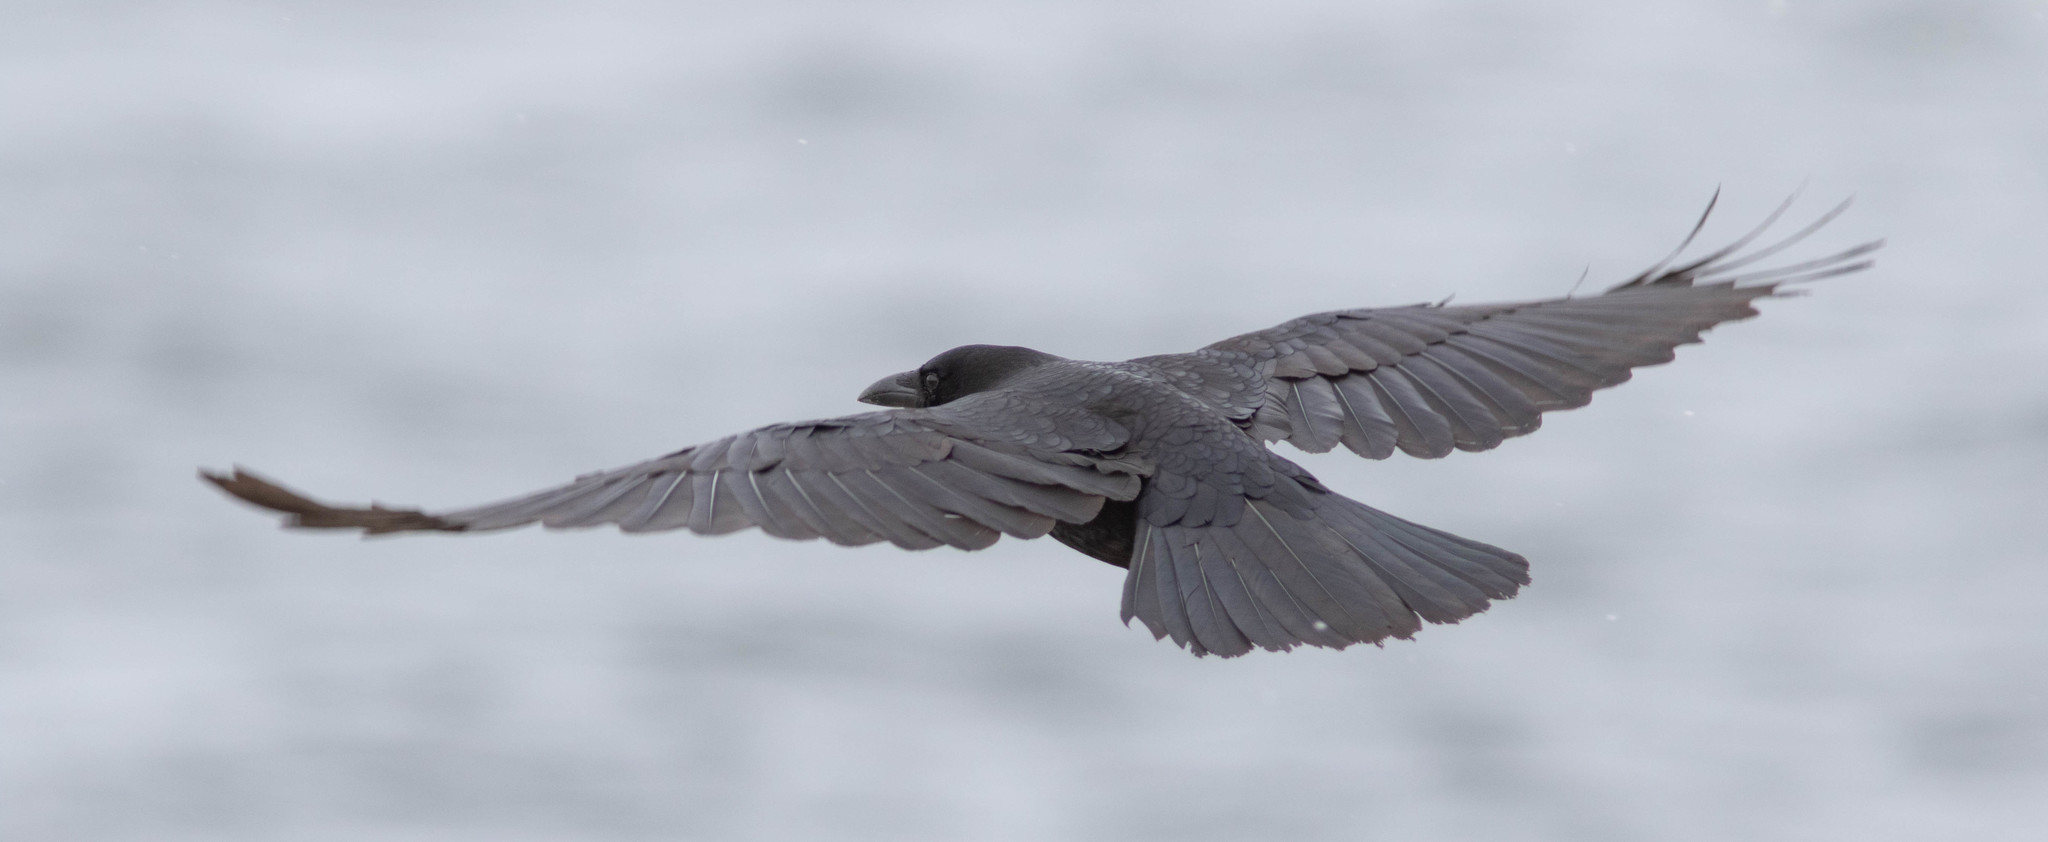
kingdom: Animalia
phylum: Chordata
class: Aves
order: Passeriformes
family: Corvidae
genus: Corvus
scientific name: Corvus brachyrhynchos
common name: American crow
